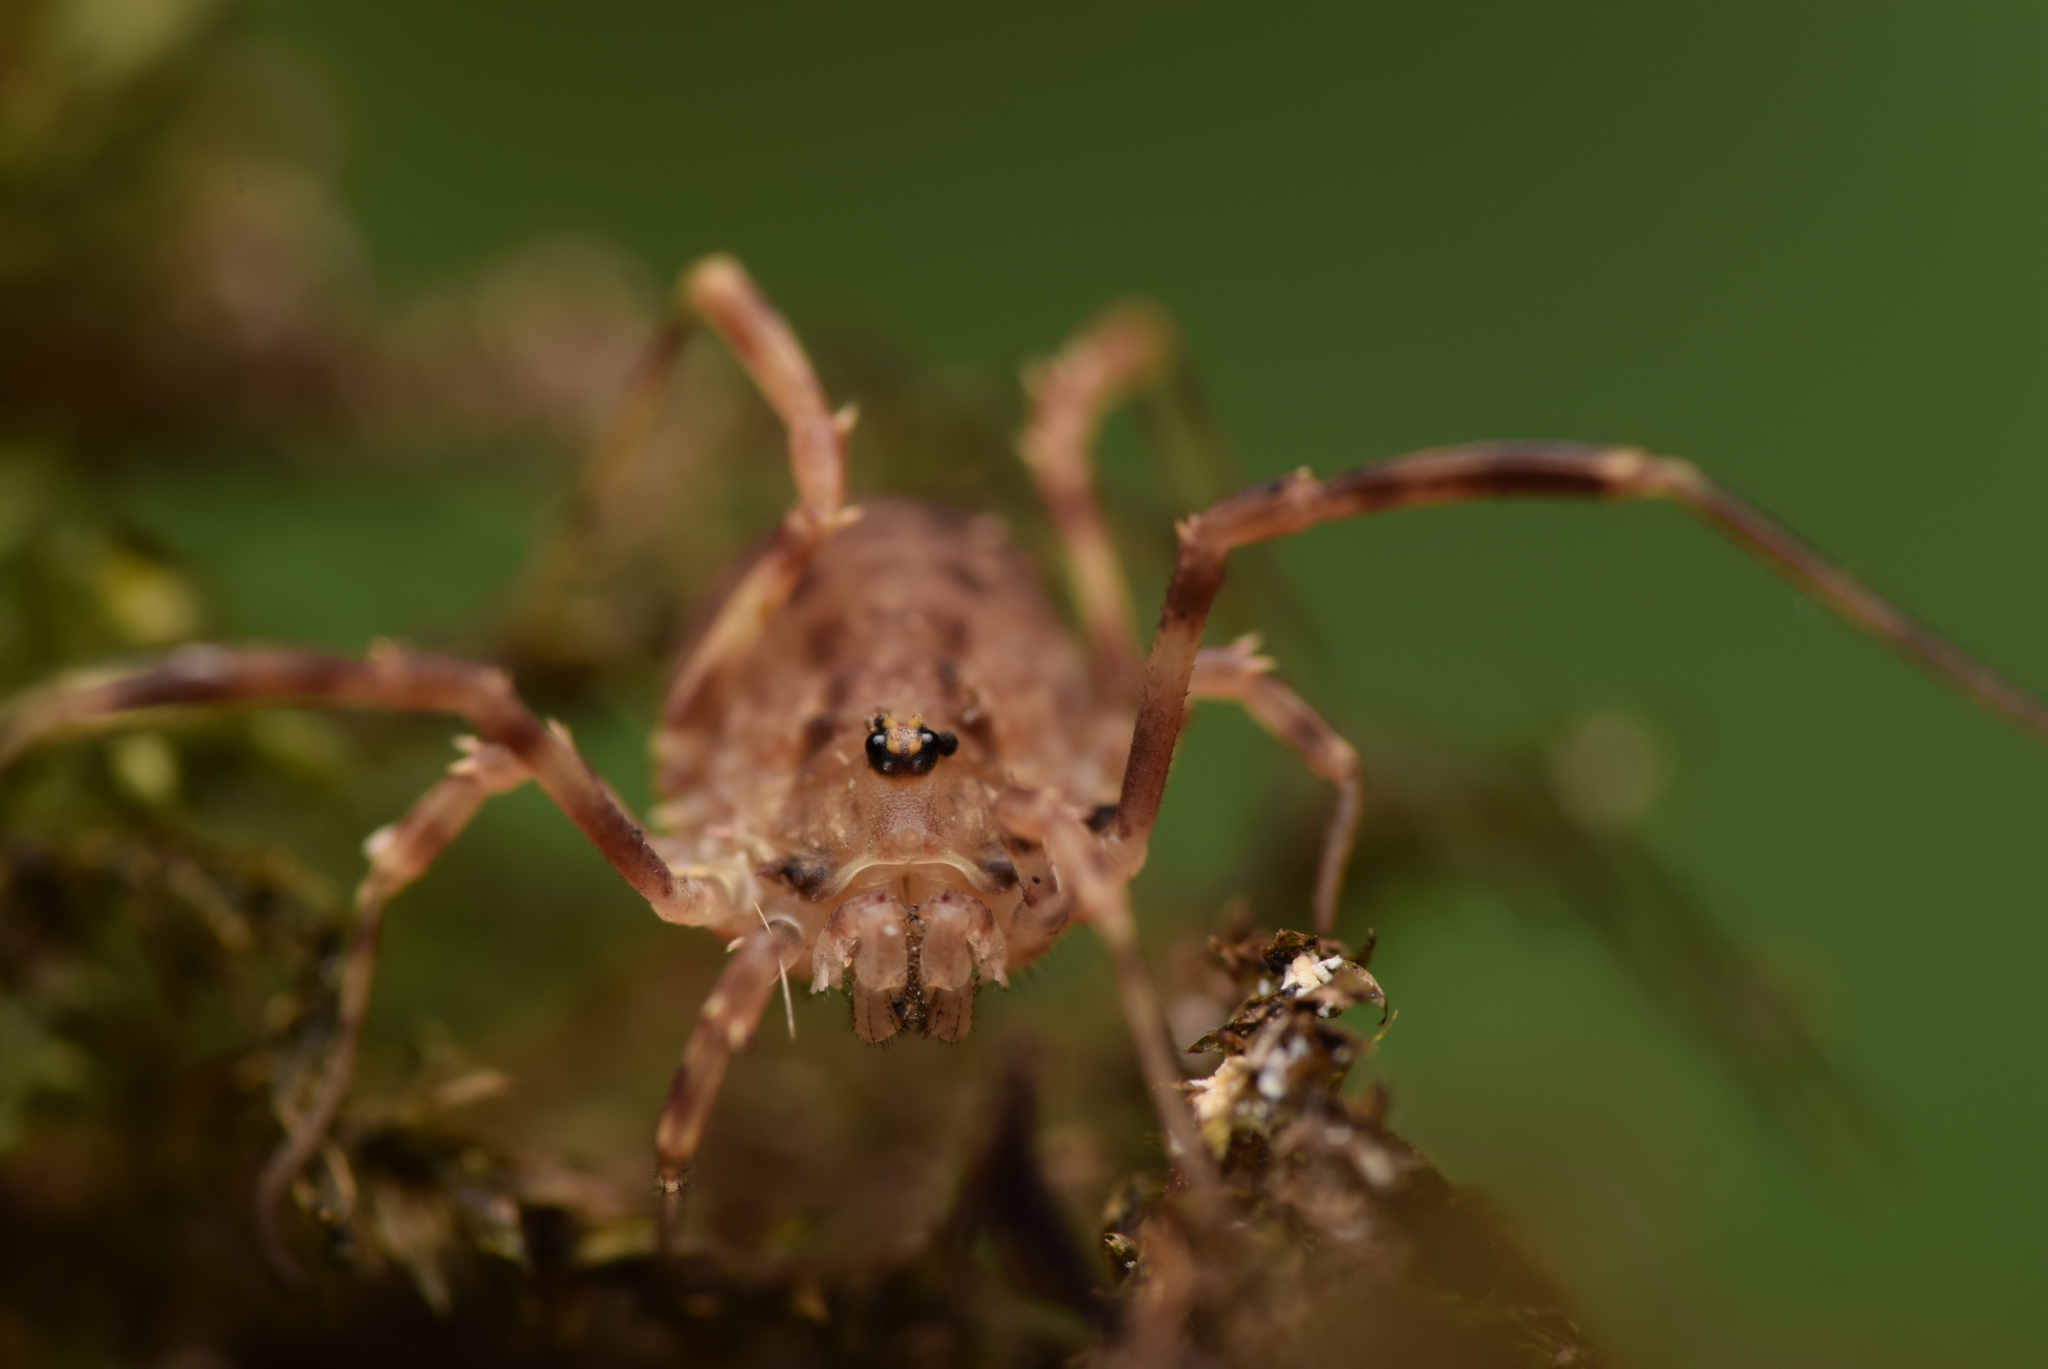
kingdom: Animalia
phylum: Arthropoda
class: Arachnida
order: Opiliones
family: Phalangiidae
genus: Lophopilio
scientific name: Lophopilio palpinalis
